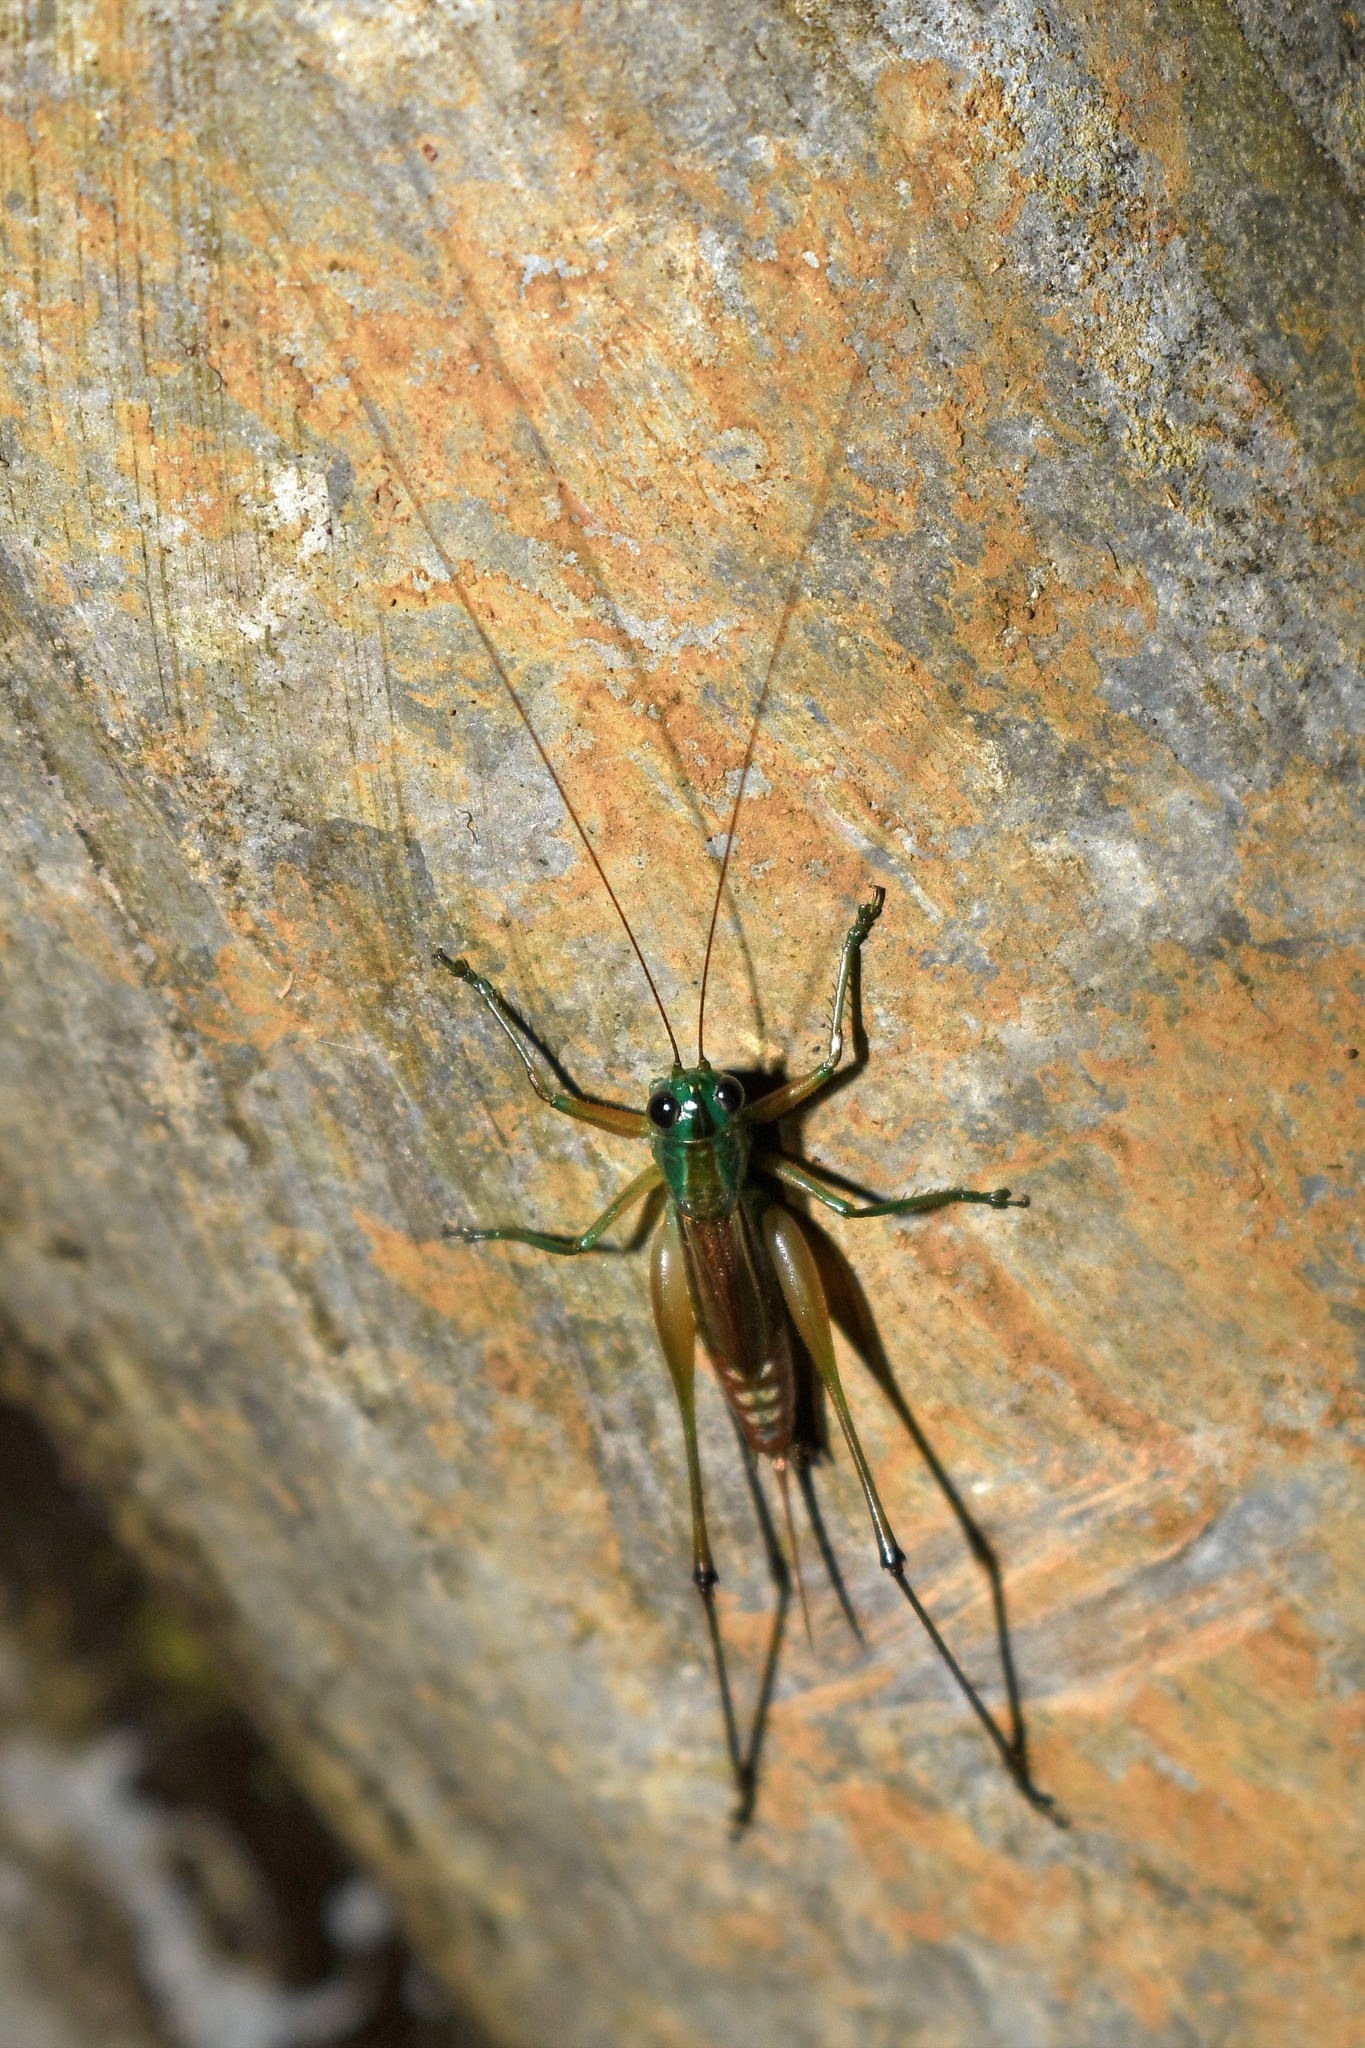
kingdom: Animalia
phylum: Arthropoda
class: Insecta
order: Orthoptera
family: Tettigoniidae
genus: Conocephalus
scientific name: Conocephalus angustifrons
